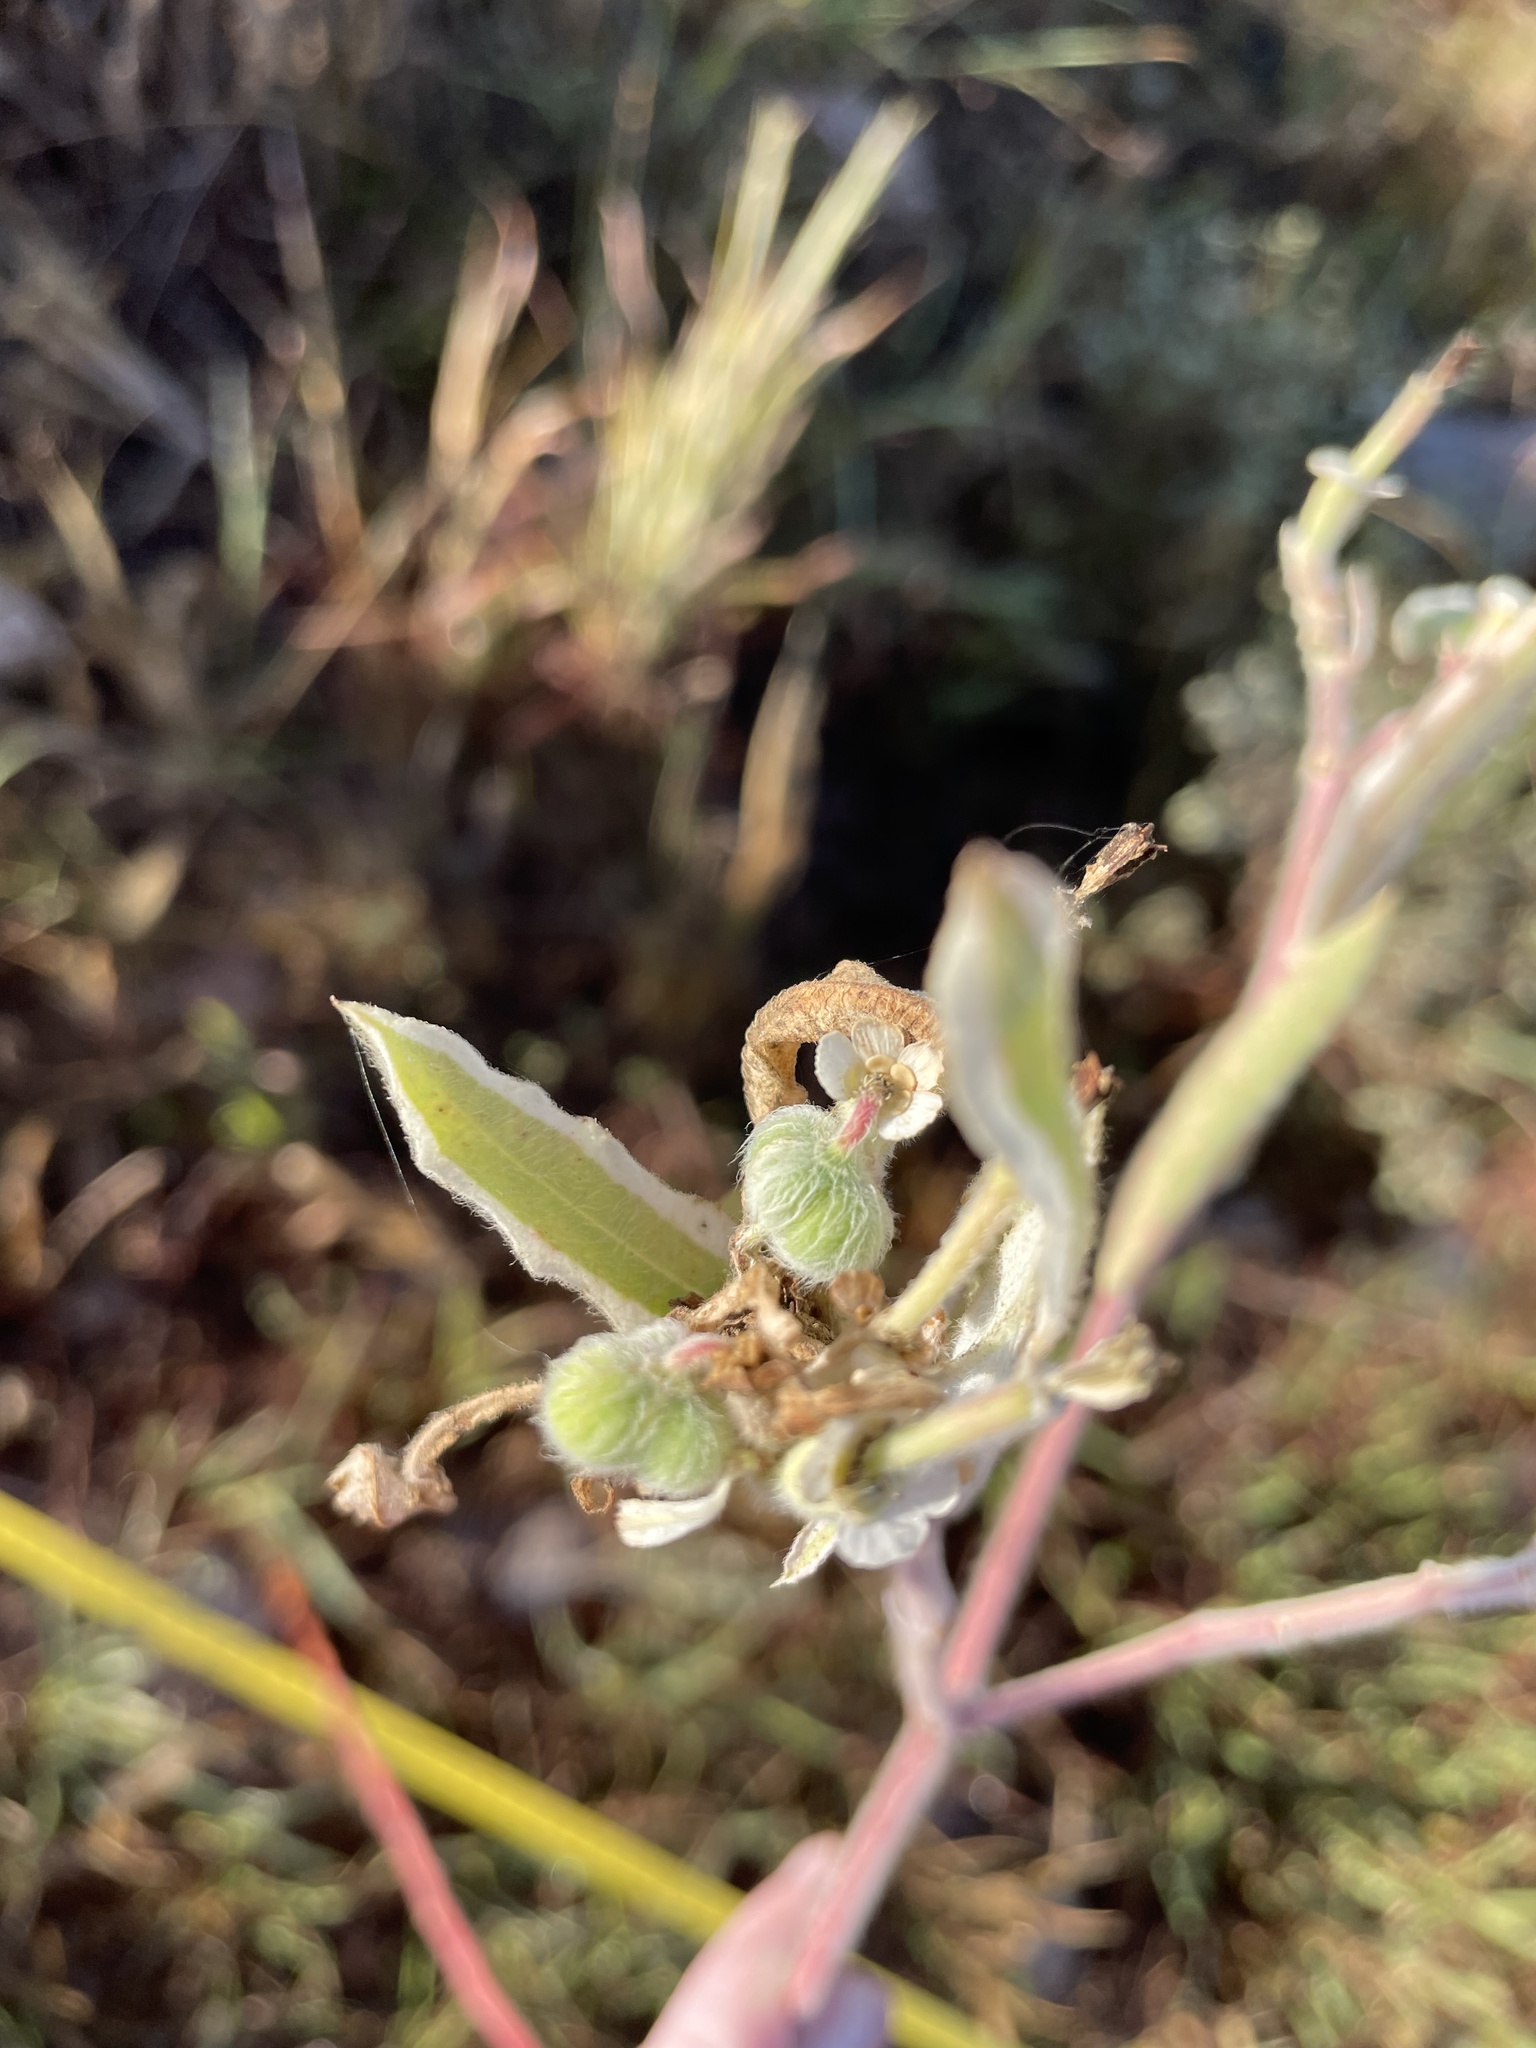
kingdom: Plantae
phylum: Tracheophyta
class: Magnoliopsida
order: Malpighiales
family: Euphorbiaceae
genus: Euphorbia
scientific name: Euphorbia bicolor
